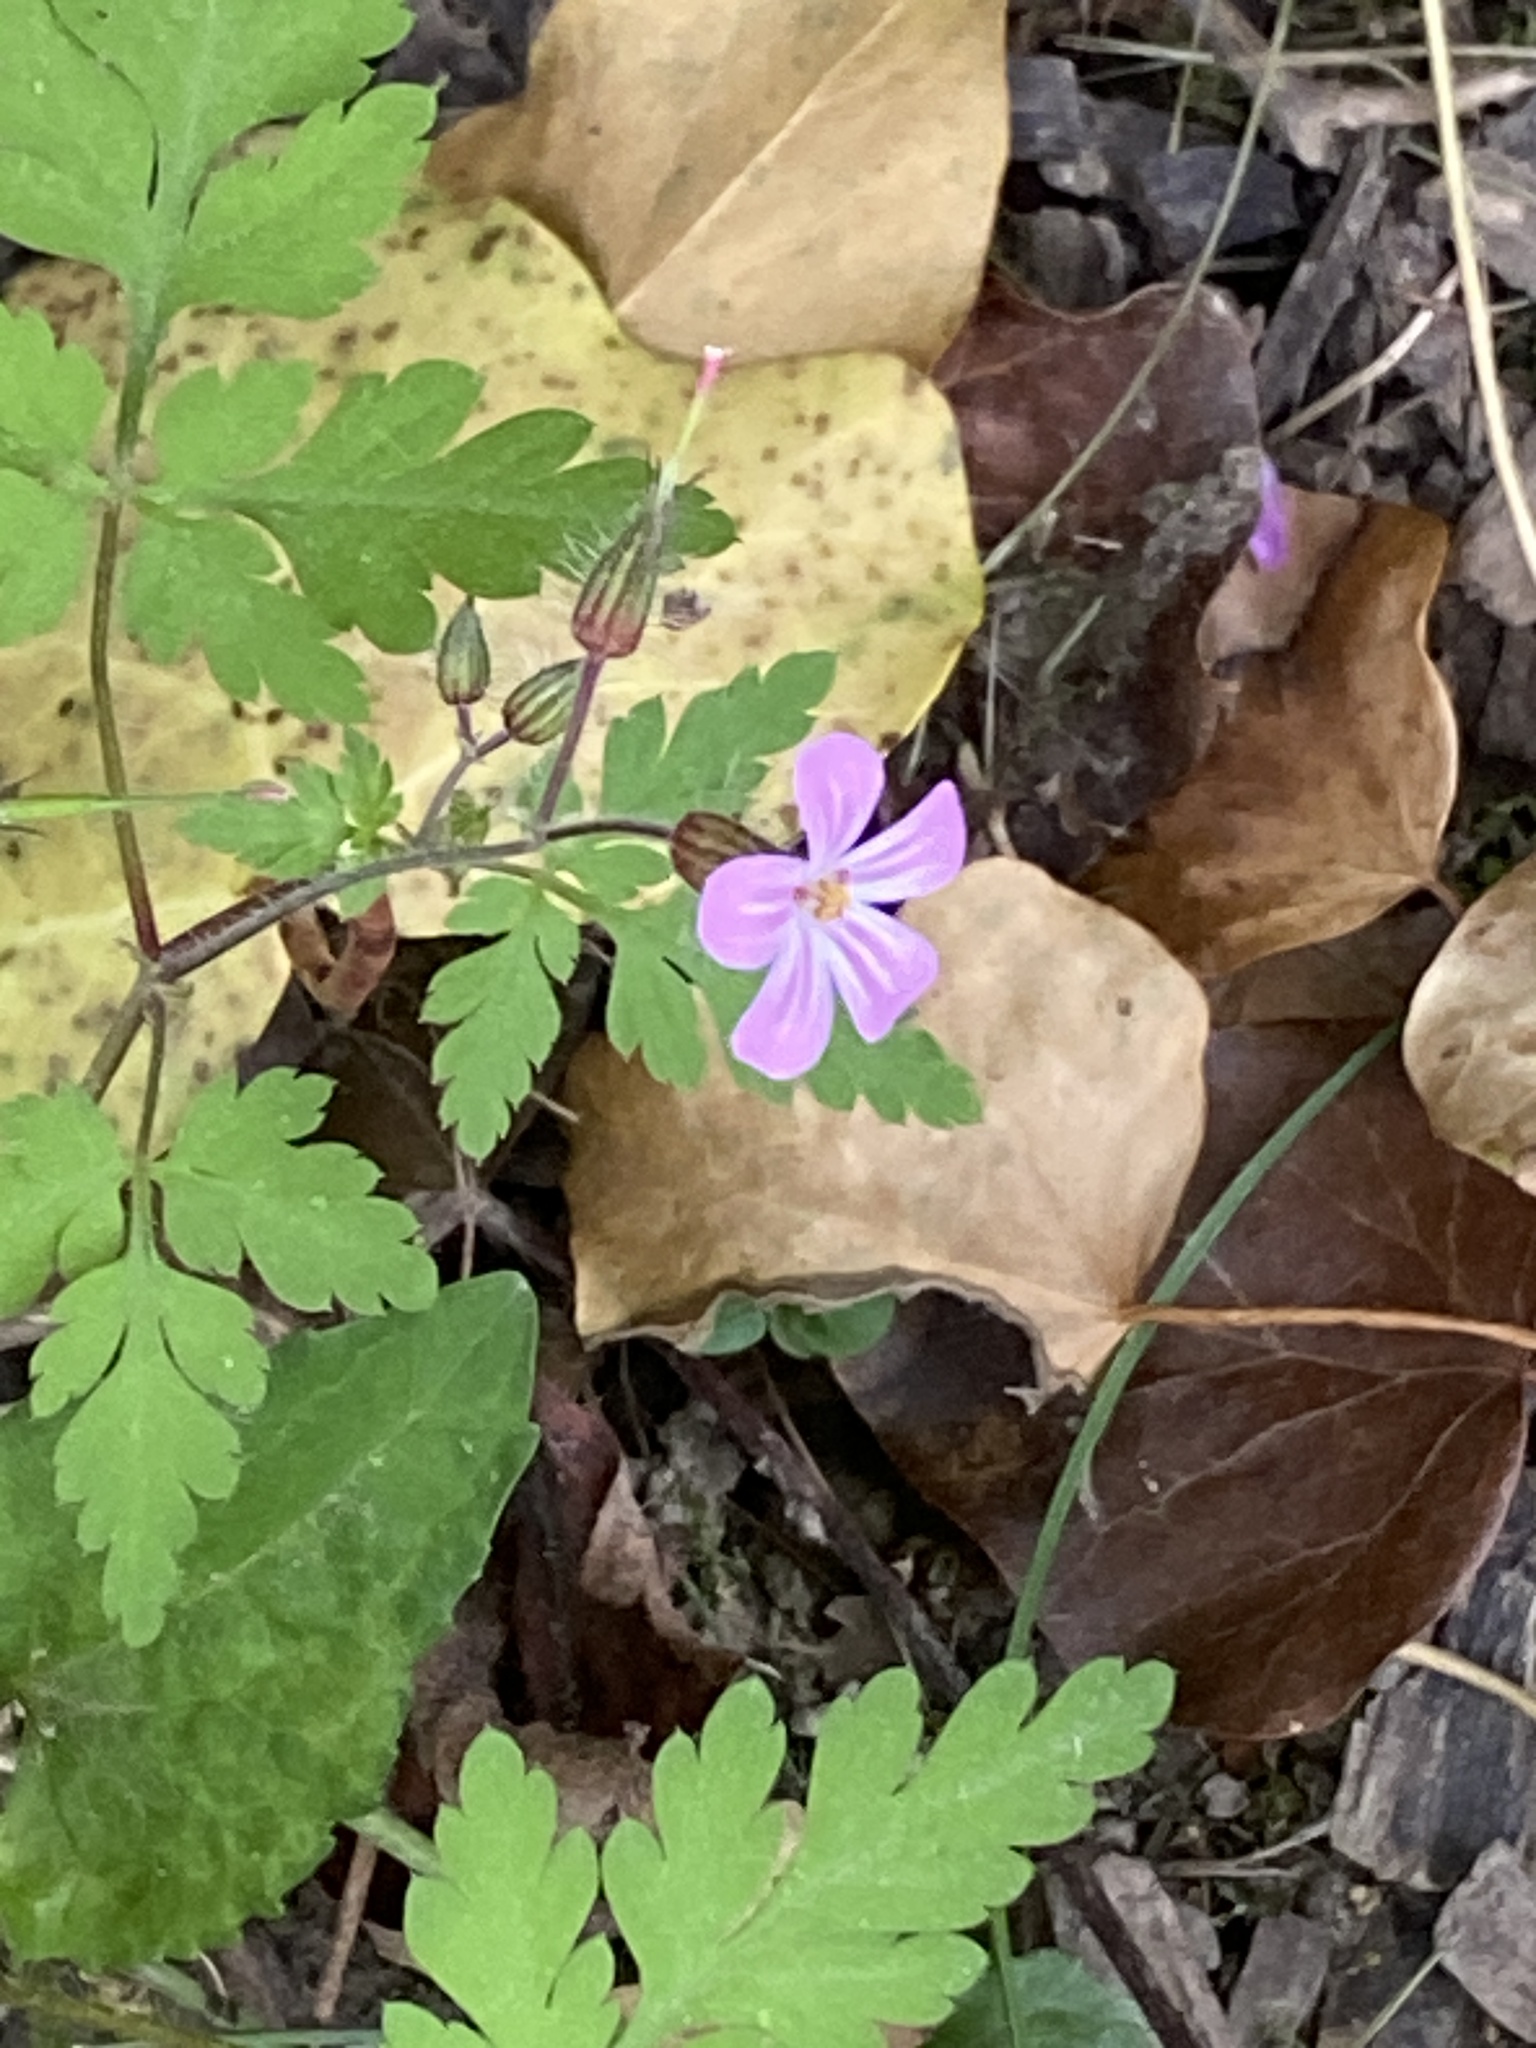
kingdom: Plantae
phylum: Tracheophyta
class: Magnoliopsida
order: Geraniales
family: Geraniaceae
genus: Geranium
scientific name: Geranium robertianum
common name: Herb-robert
